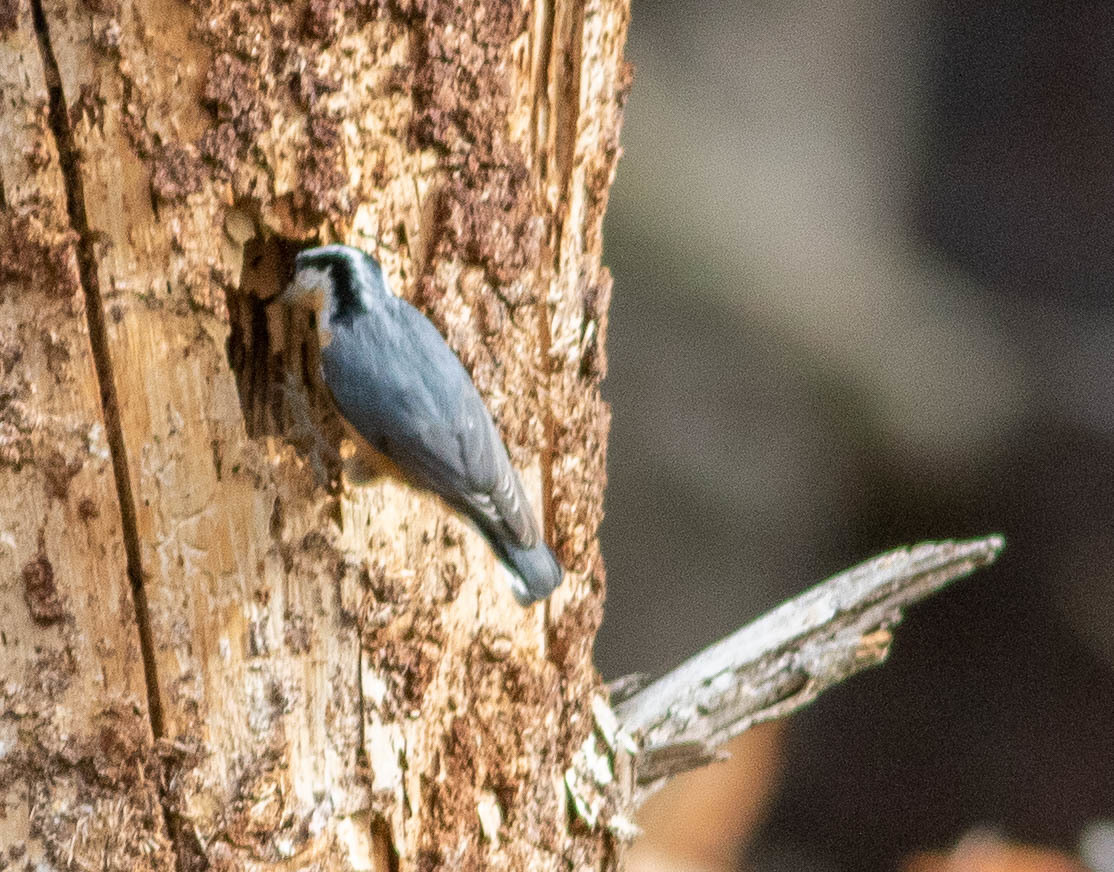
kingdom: Animalia
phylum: Chordata
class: Aves
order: Passeriformes
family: Sittidae
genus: Sitta
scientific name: Sitta canadensis
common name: Red-breasted nuthatch
